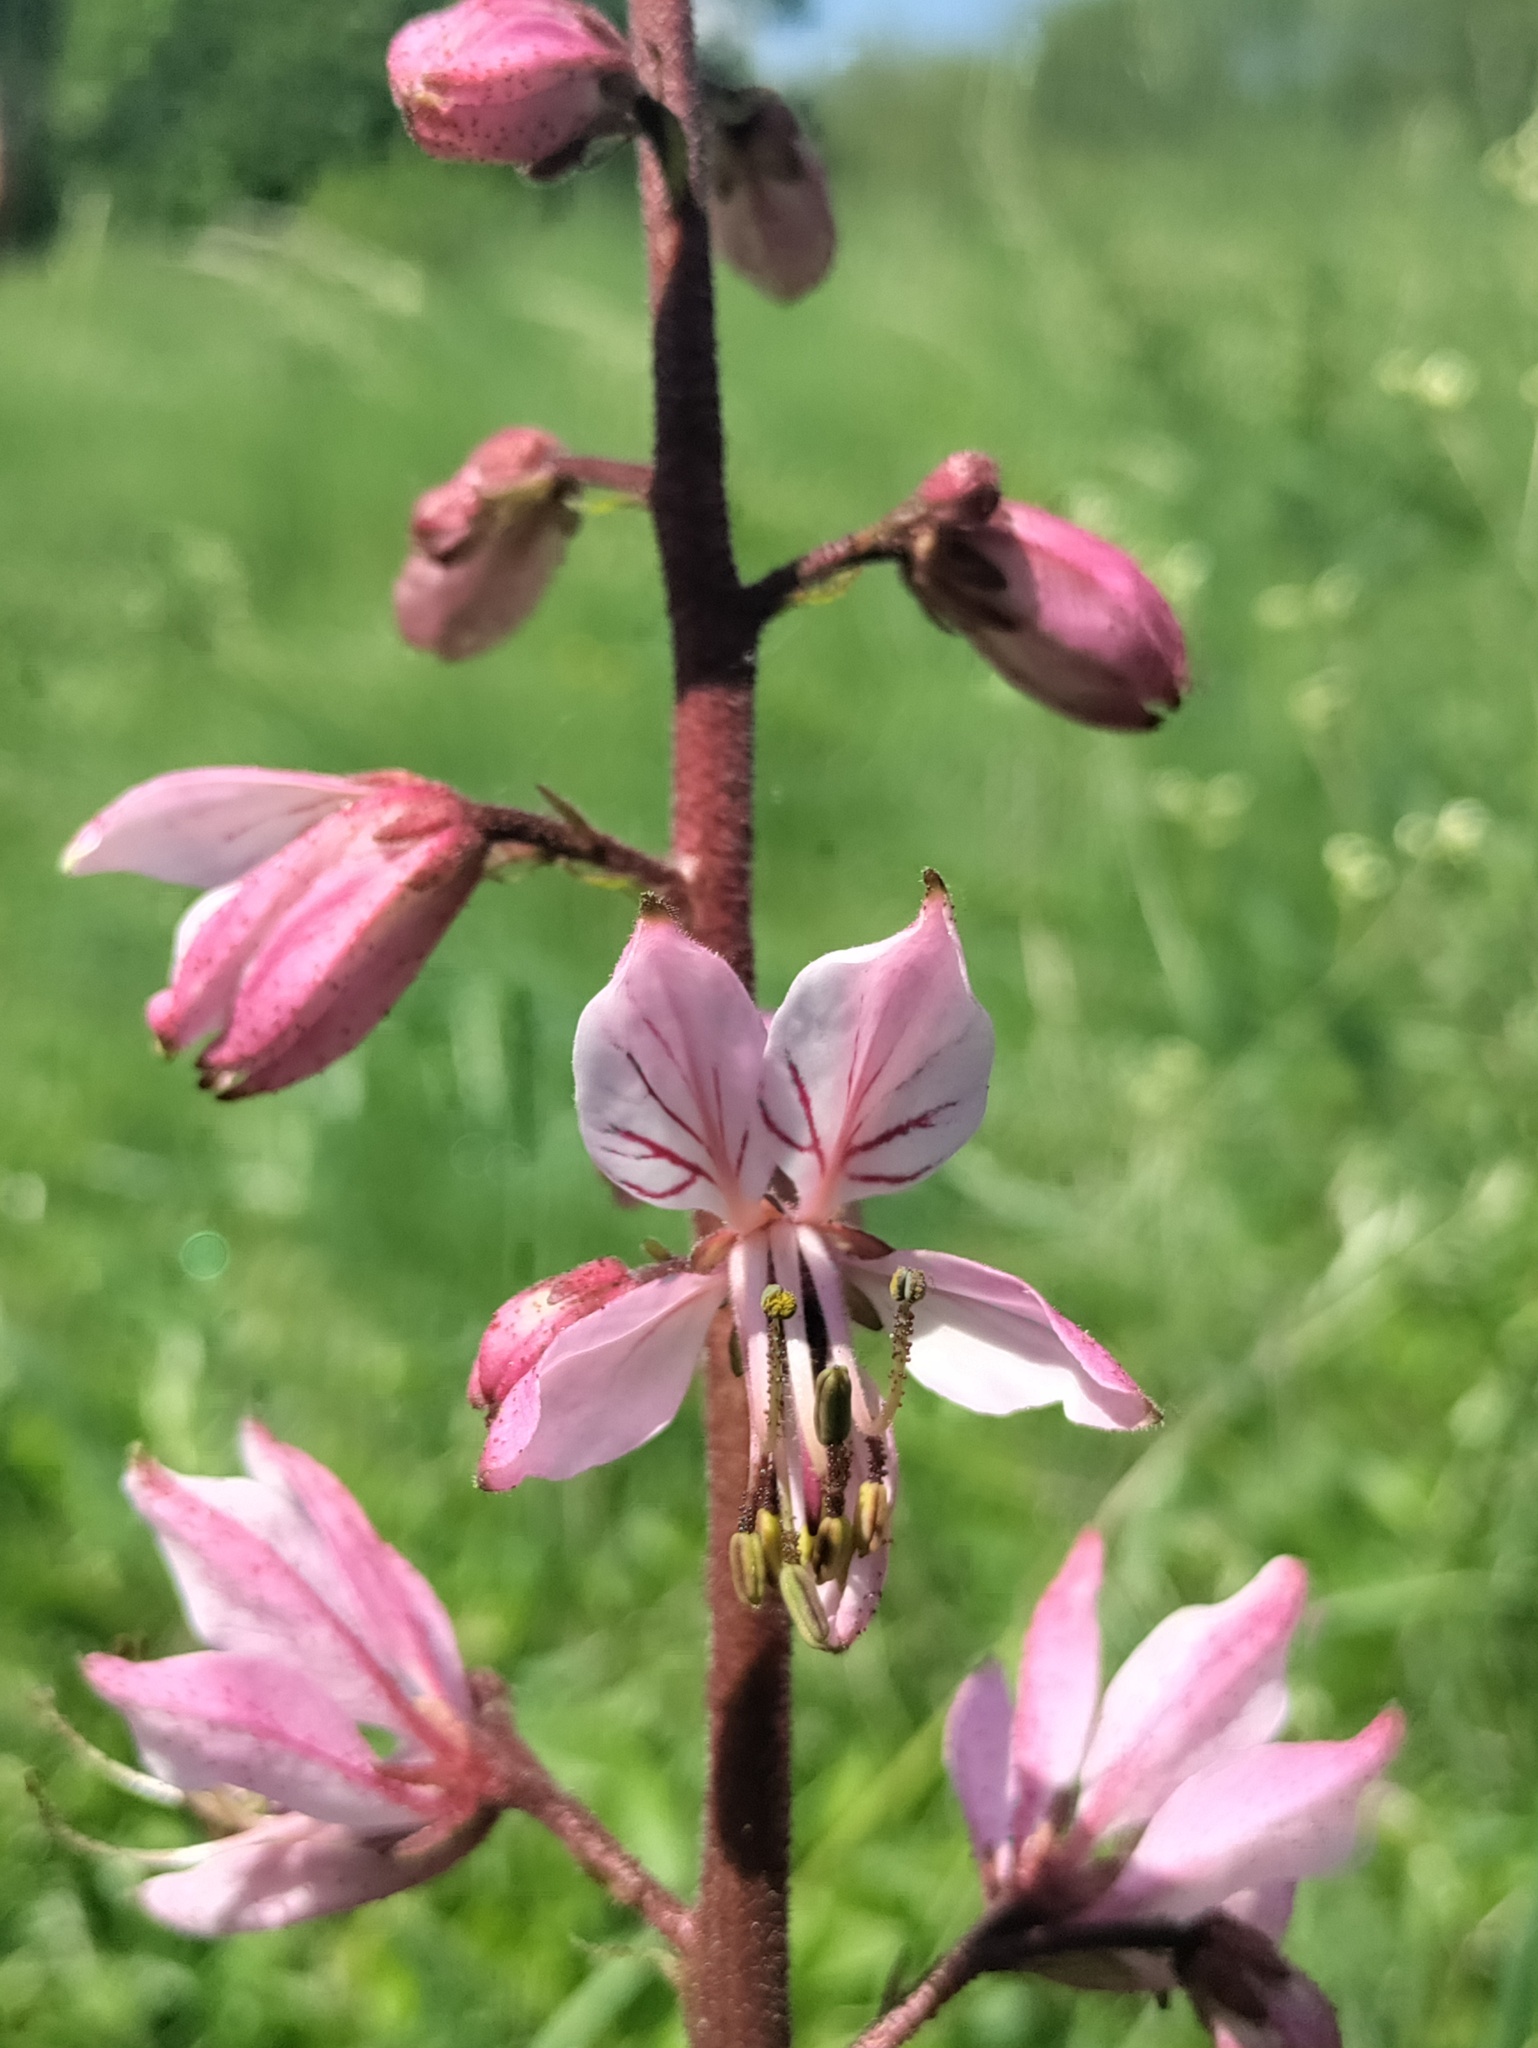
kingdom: Plantae
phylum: Tracheophyta
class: Magnoliopsida
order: Sapindales
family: Rutaceae
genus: Dictamnus
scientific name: Dictamnus albus
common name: Gasplant
